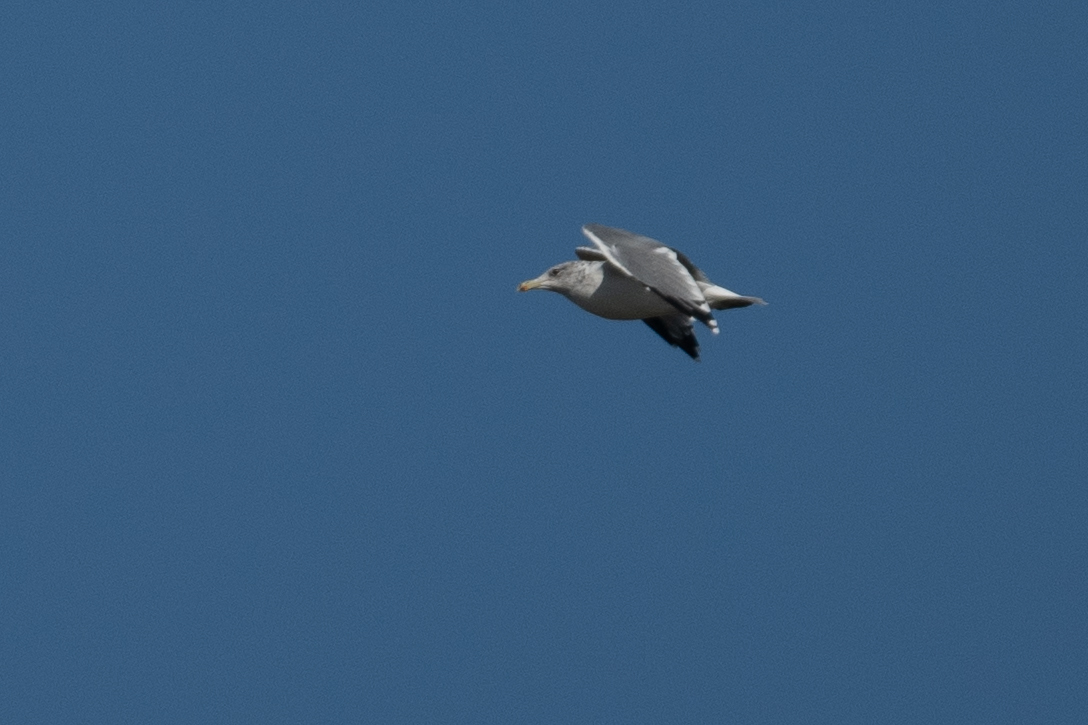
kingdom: Animalia
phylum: Chordata
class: Aves
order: Charadriiformes
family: Laridae
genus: Larus
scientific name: Larus californicus
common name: California gull
